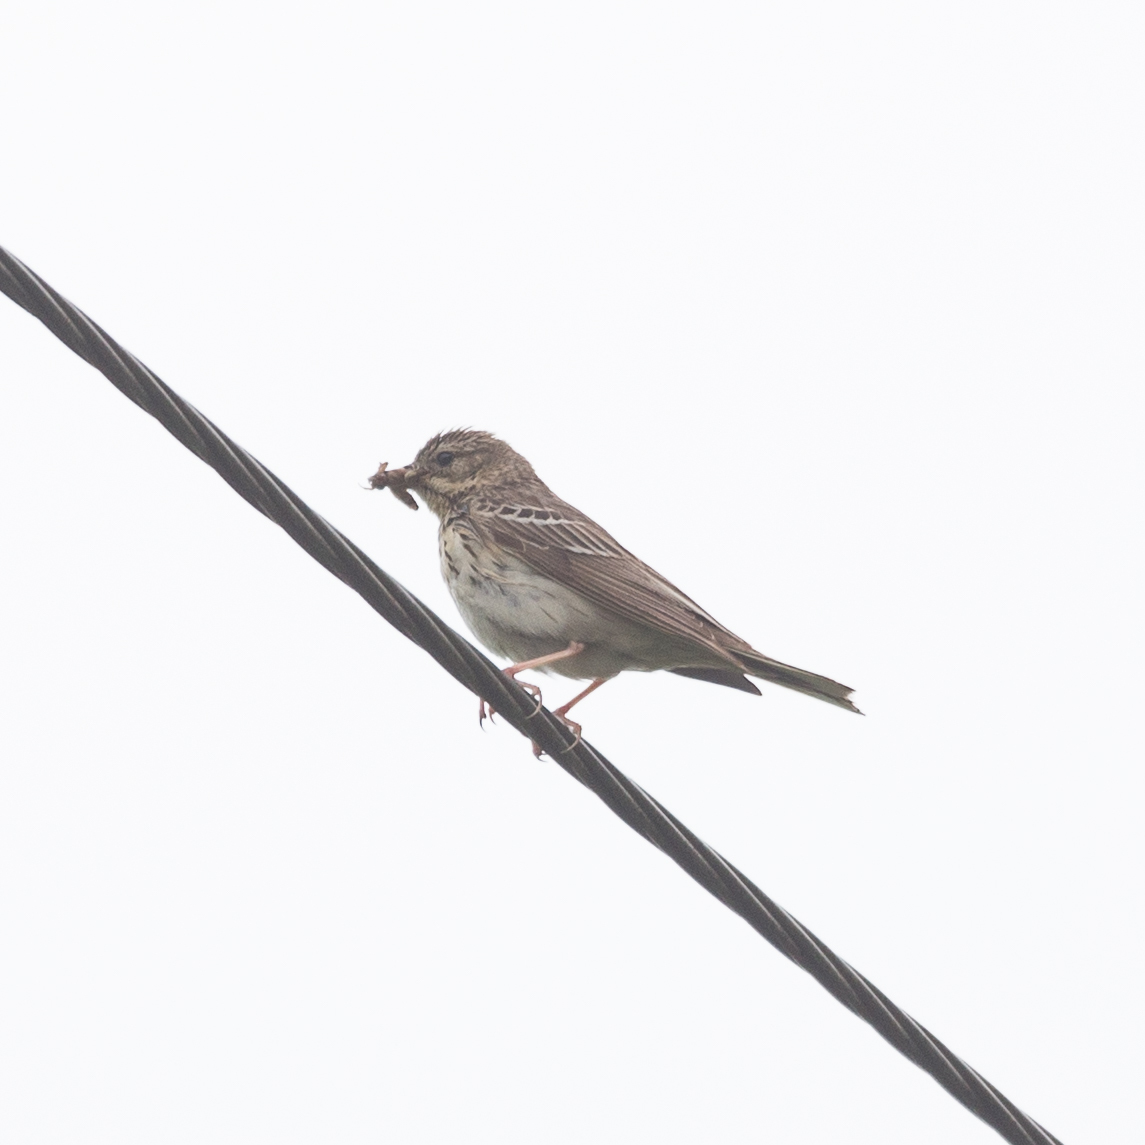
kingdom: Animalia
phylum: Chordata
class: Aves
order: Passeriformes
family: Motacillidae
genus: Anthus
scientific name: Anthus trivialis
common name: Tree pipit
